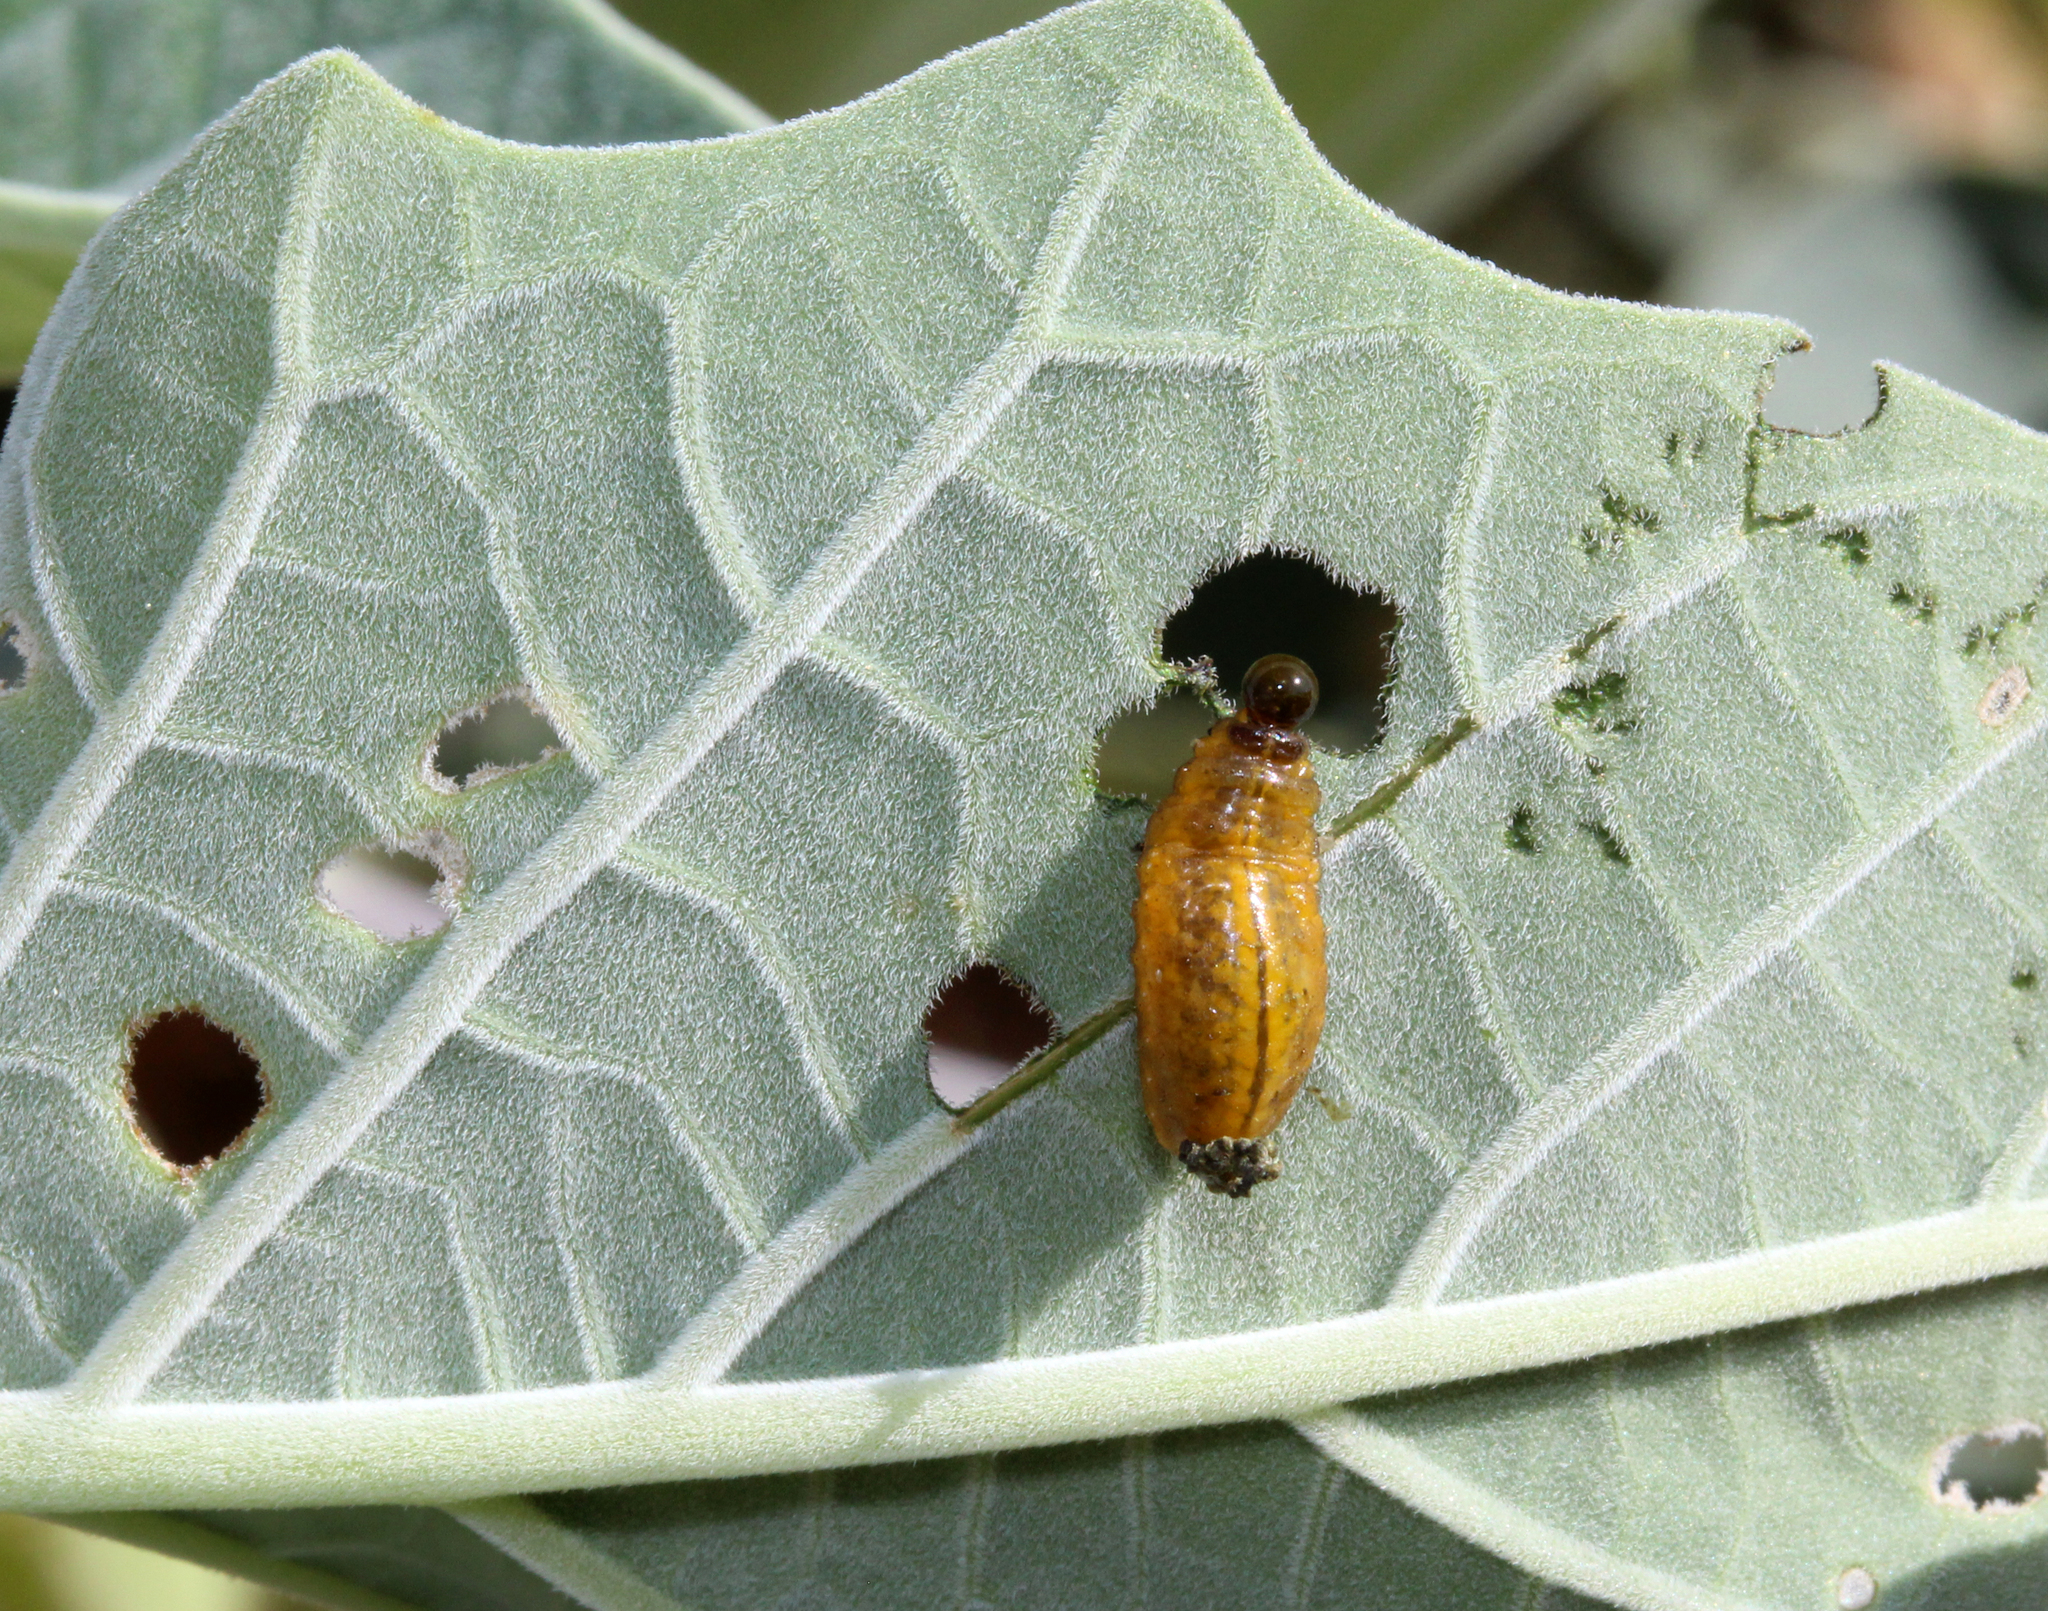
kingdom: Animalia
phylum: Arthropoda
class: Insecta
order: Coleoptera
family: Chrysomelidae
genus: Lema
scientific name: Lema daturaphila
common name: Leaf beetle
